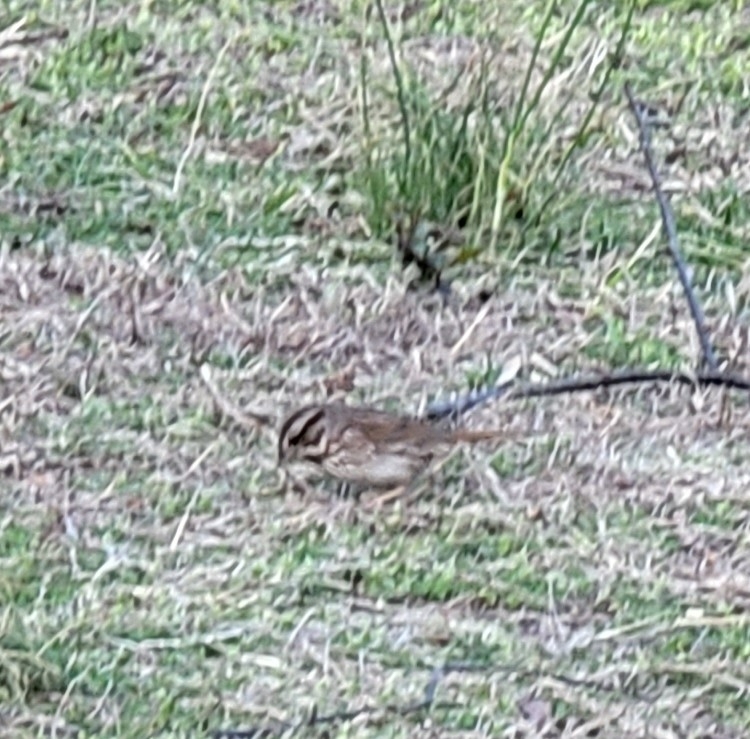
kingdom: Animalia
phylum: Chordata
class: Aves
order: Passeriformes
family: Passerellidae
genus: Melospiza
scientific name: Melospiza melodia
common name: Song sparrow
